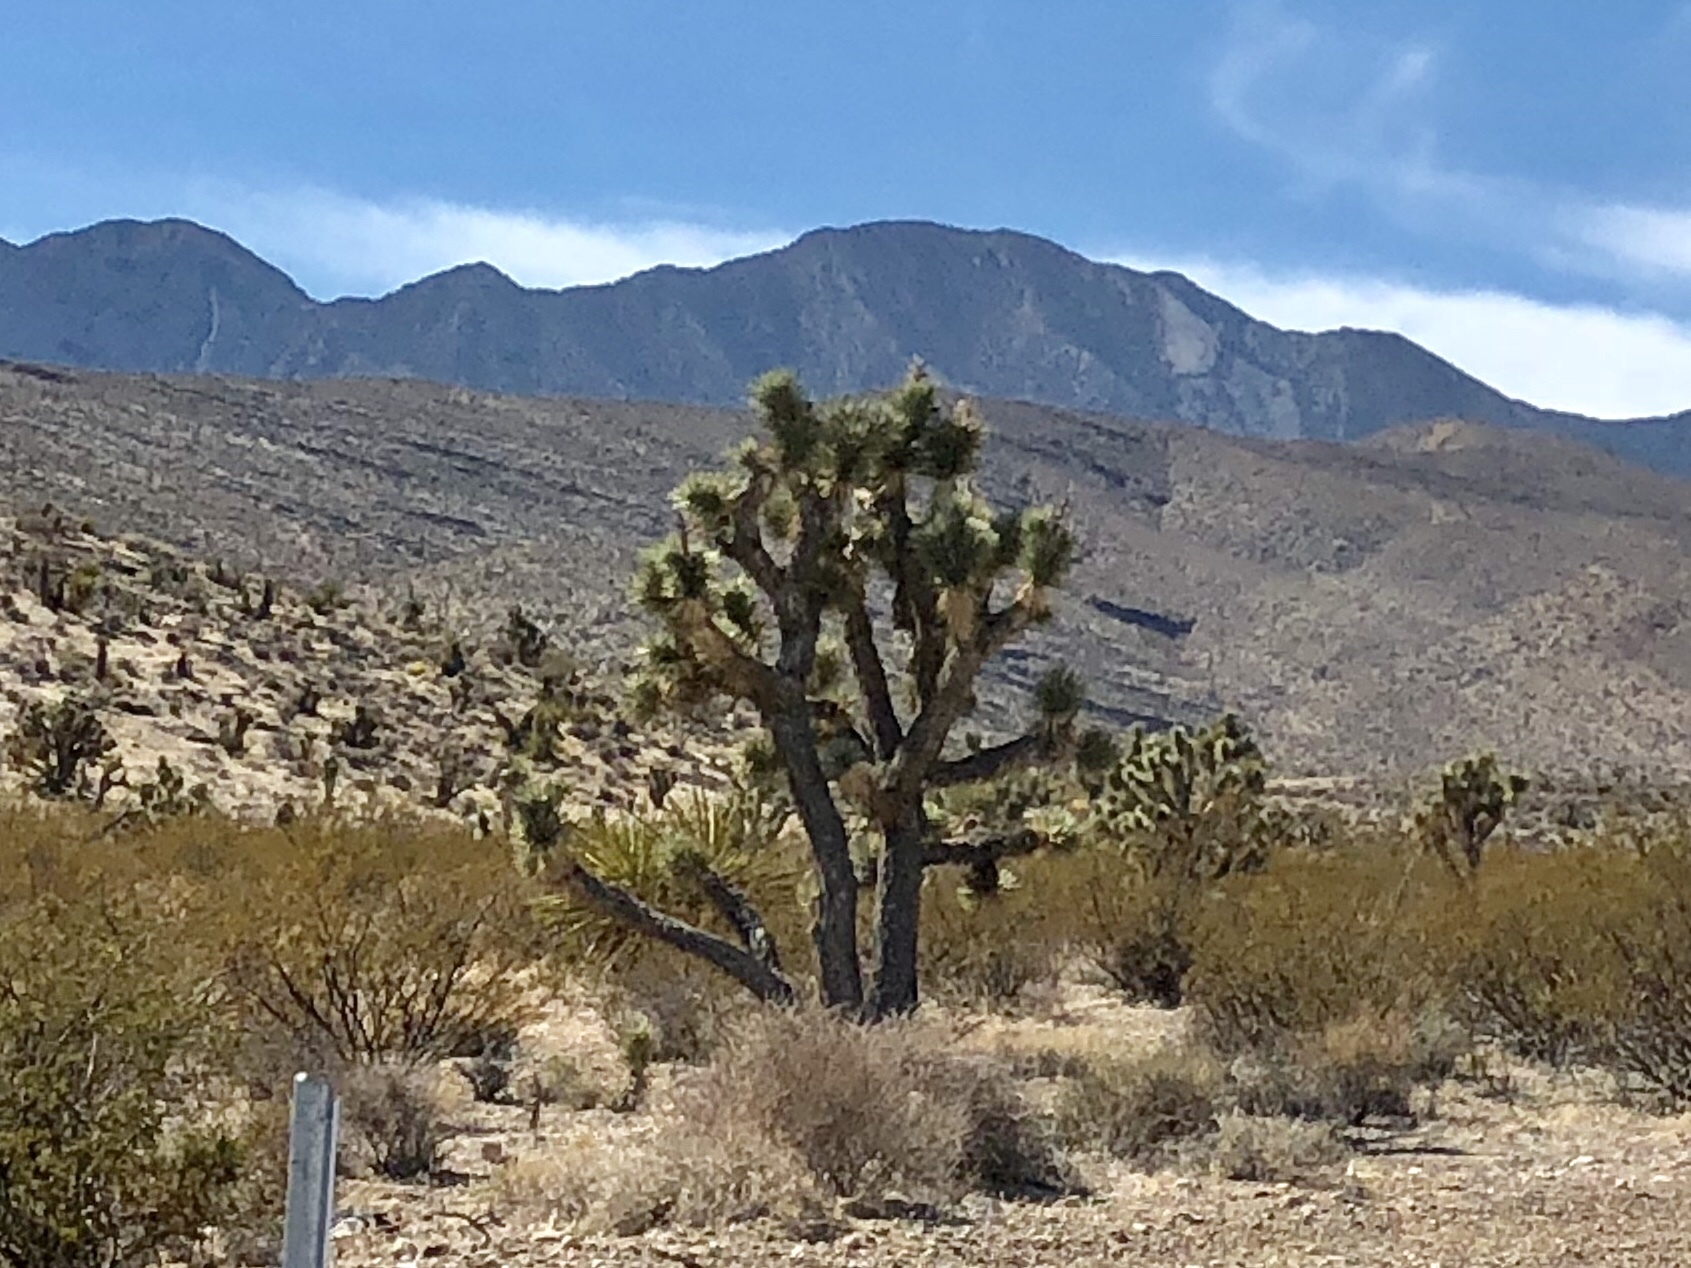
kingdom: Plantae
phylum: Tracheophyta
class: Liliopsida
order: Asparagales
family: Asparagaceae
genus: Yucca
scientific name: Yucca brevifolia
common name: Joshua tree
